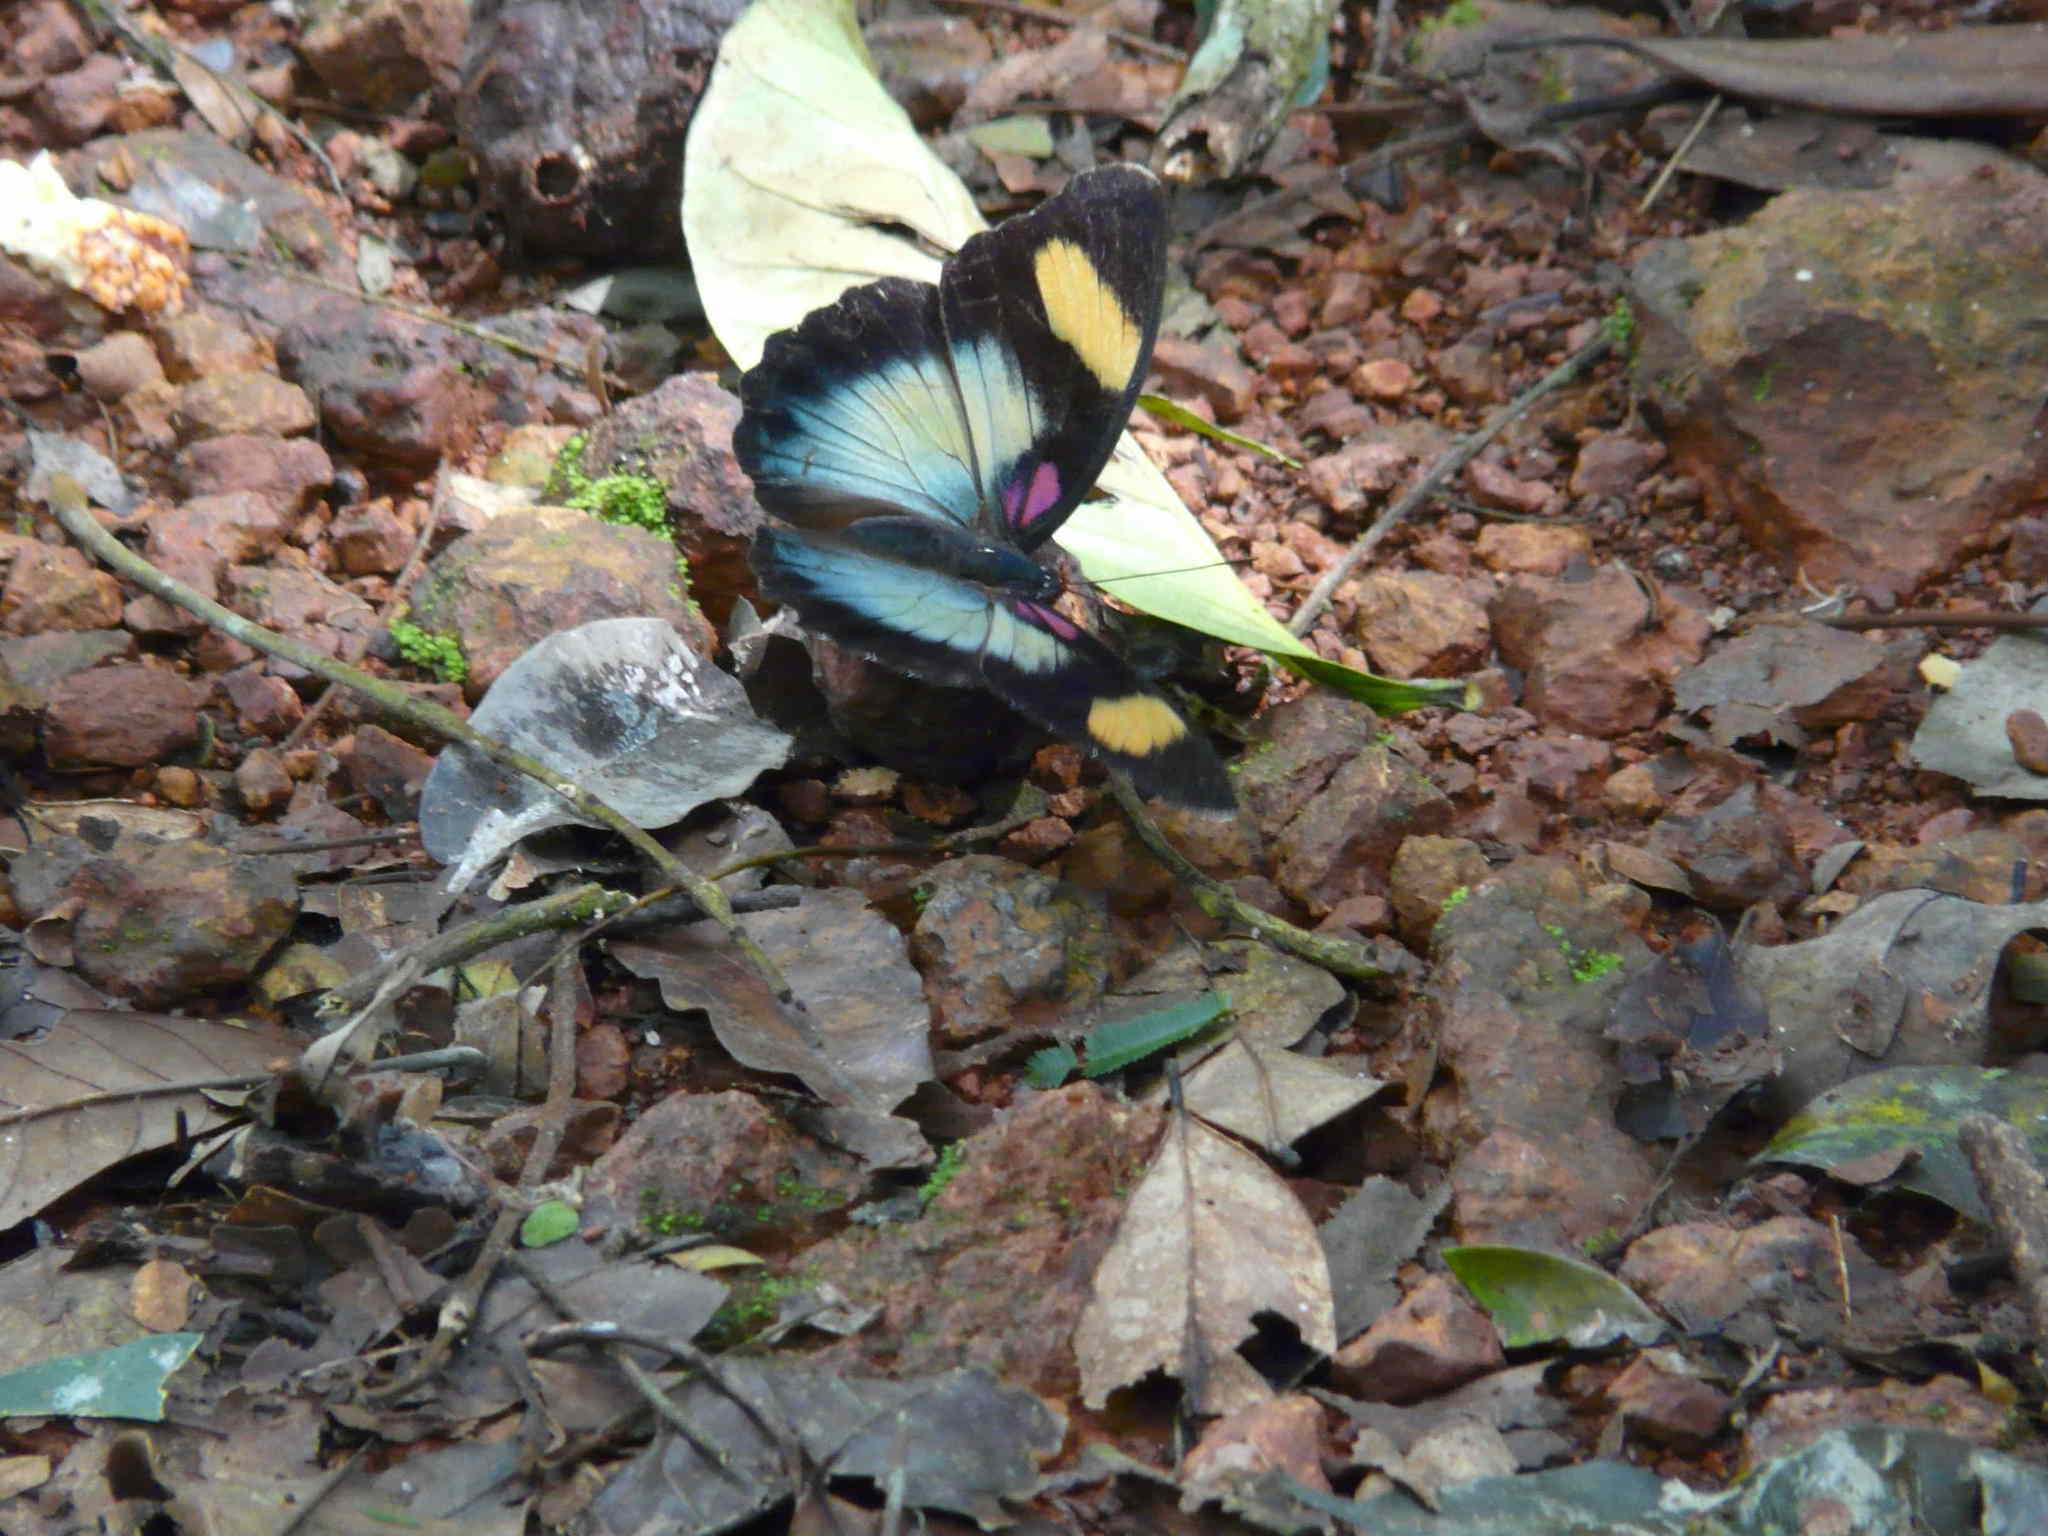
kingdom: Animalia
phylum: Arthropoda
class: Insecta
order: Lepidoptera
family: Nymphalidae
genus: Euphaedra
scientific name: Euphaedra themis
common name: Themis forester
